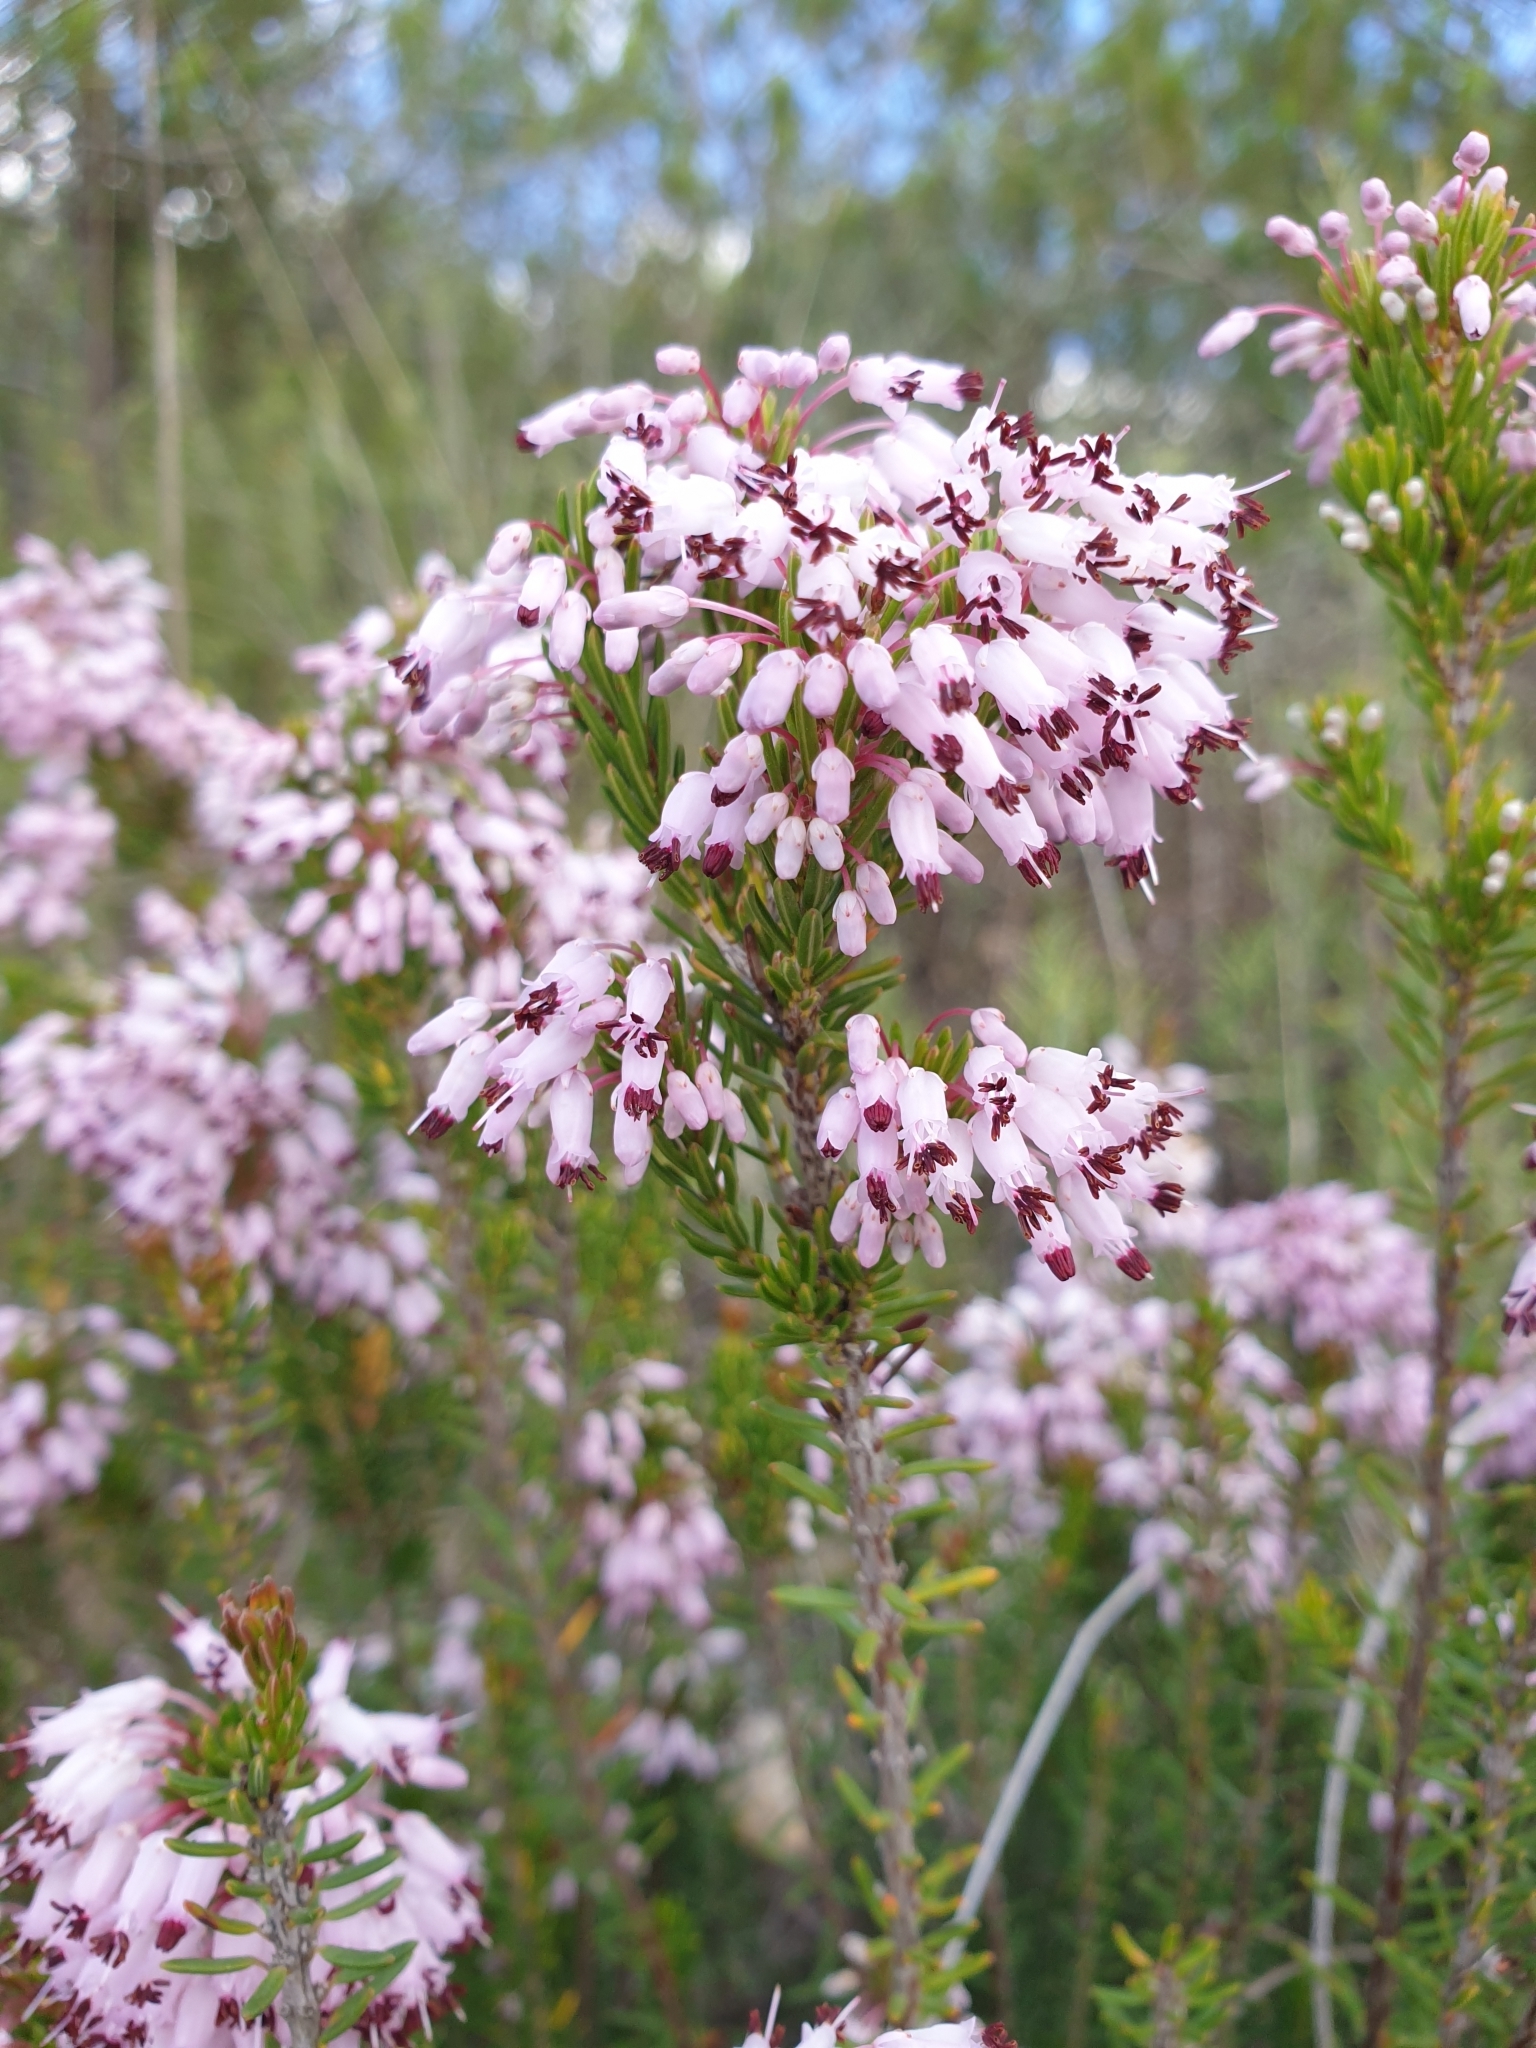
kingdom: Plantae
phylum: Tracheophyta
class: Magnoliopsida
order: Ericales
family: Ericaceae
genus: Erica
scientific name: Erica multiflora
